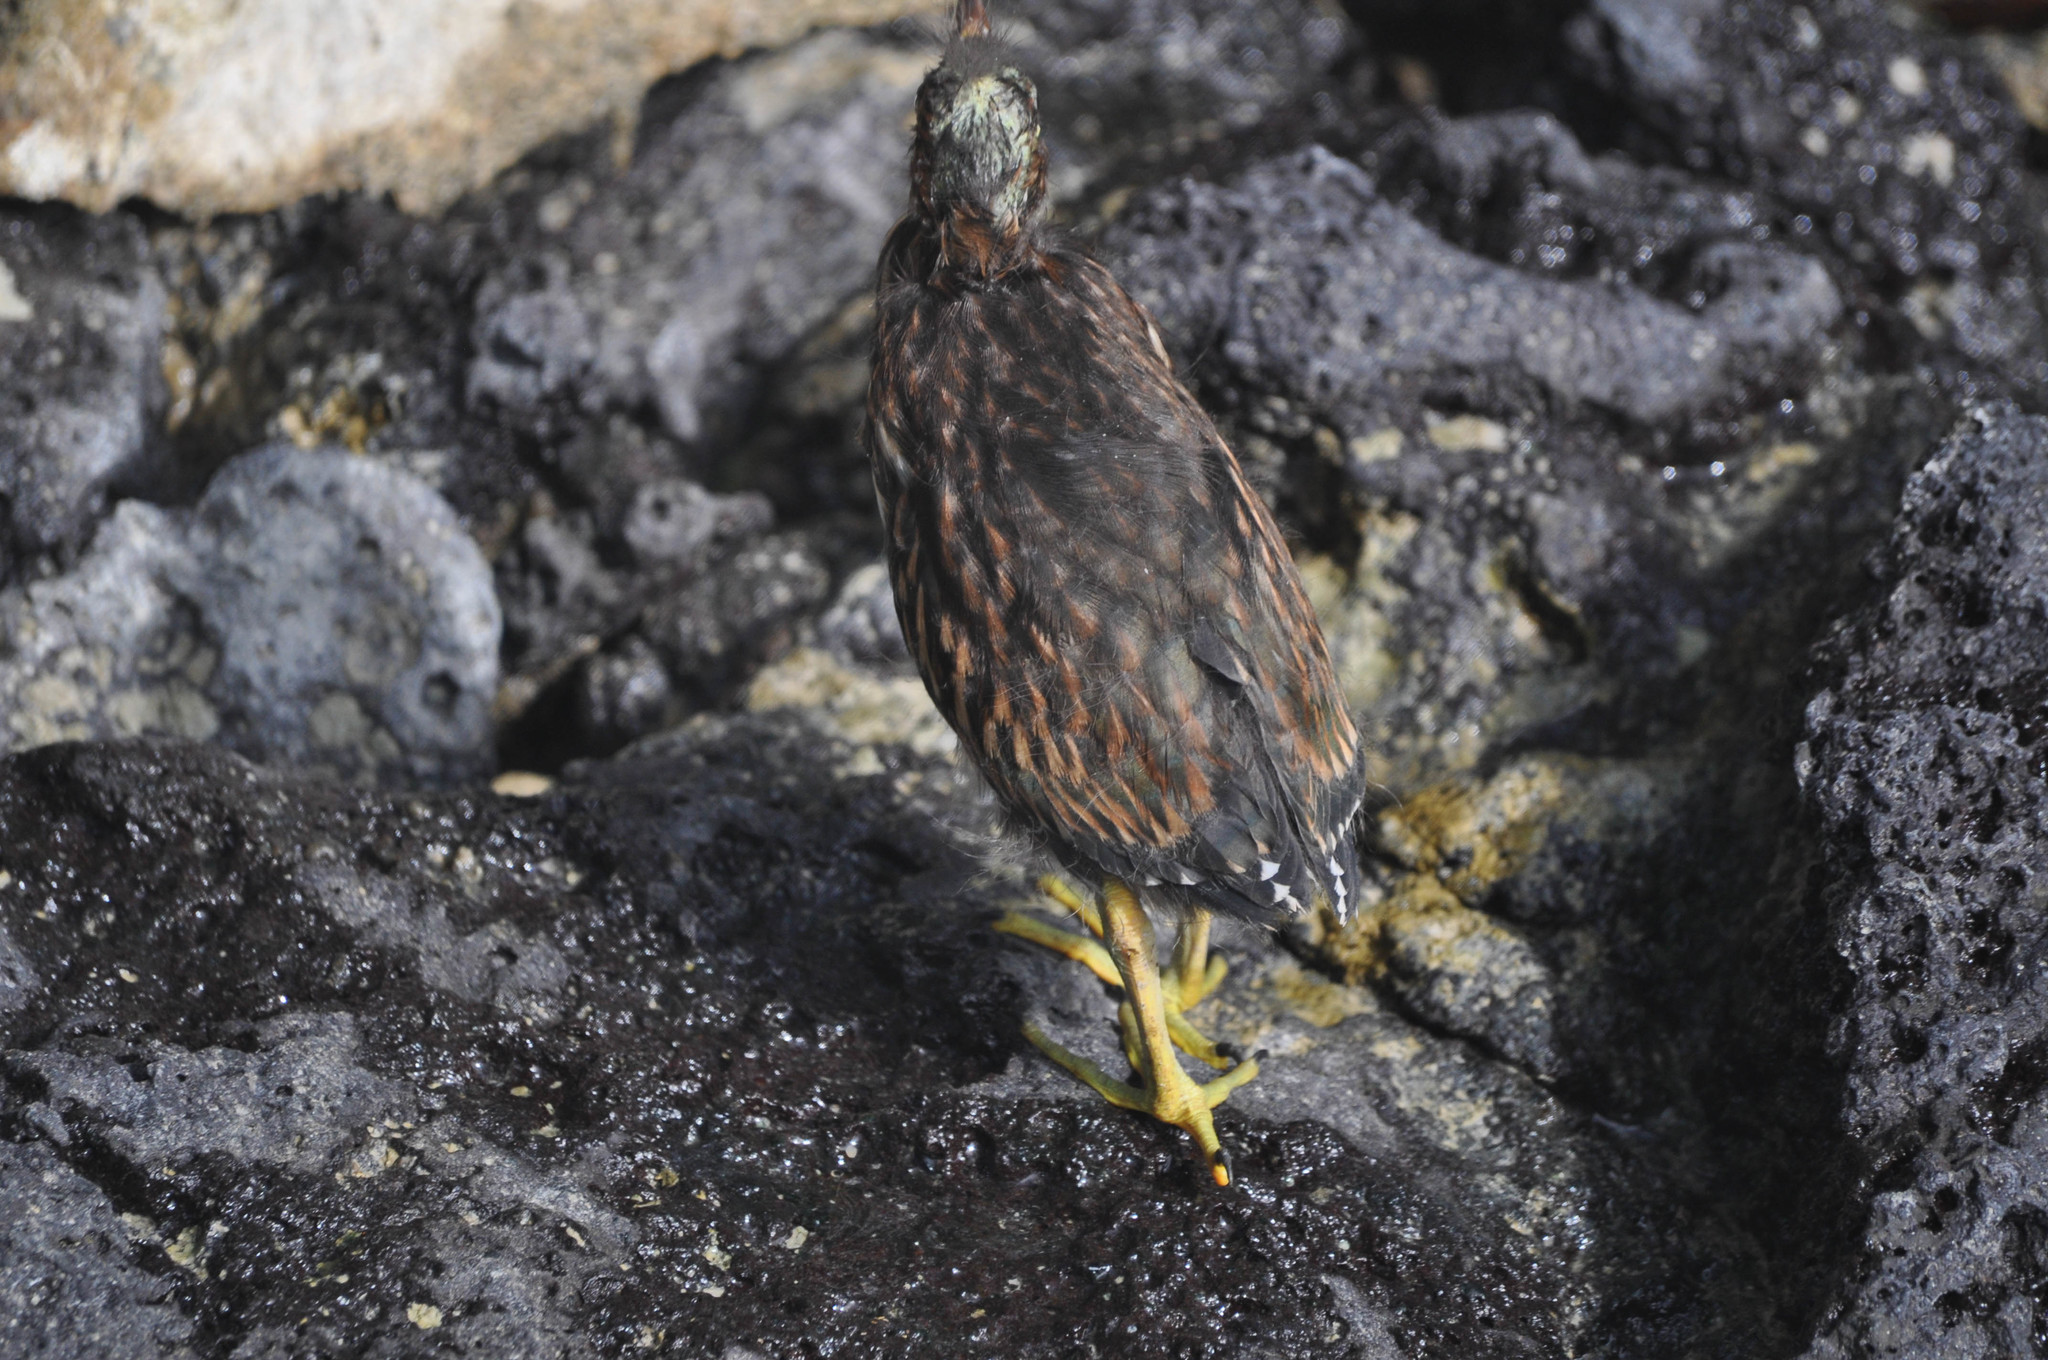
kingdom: Animalia
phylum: Chordata
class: Aves
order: Pelecaniformes
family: Ardeidae
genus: Butorides
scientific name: Butorides striata
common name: Striated heron
